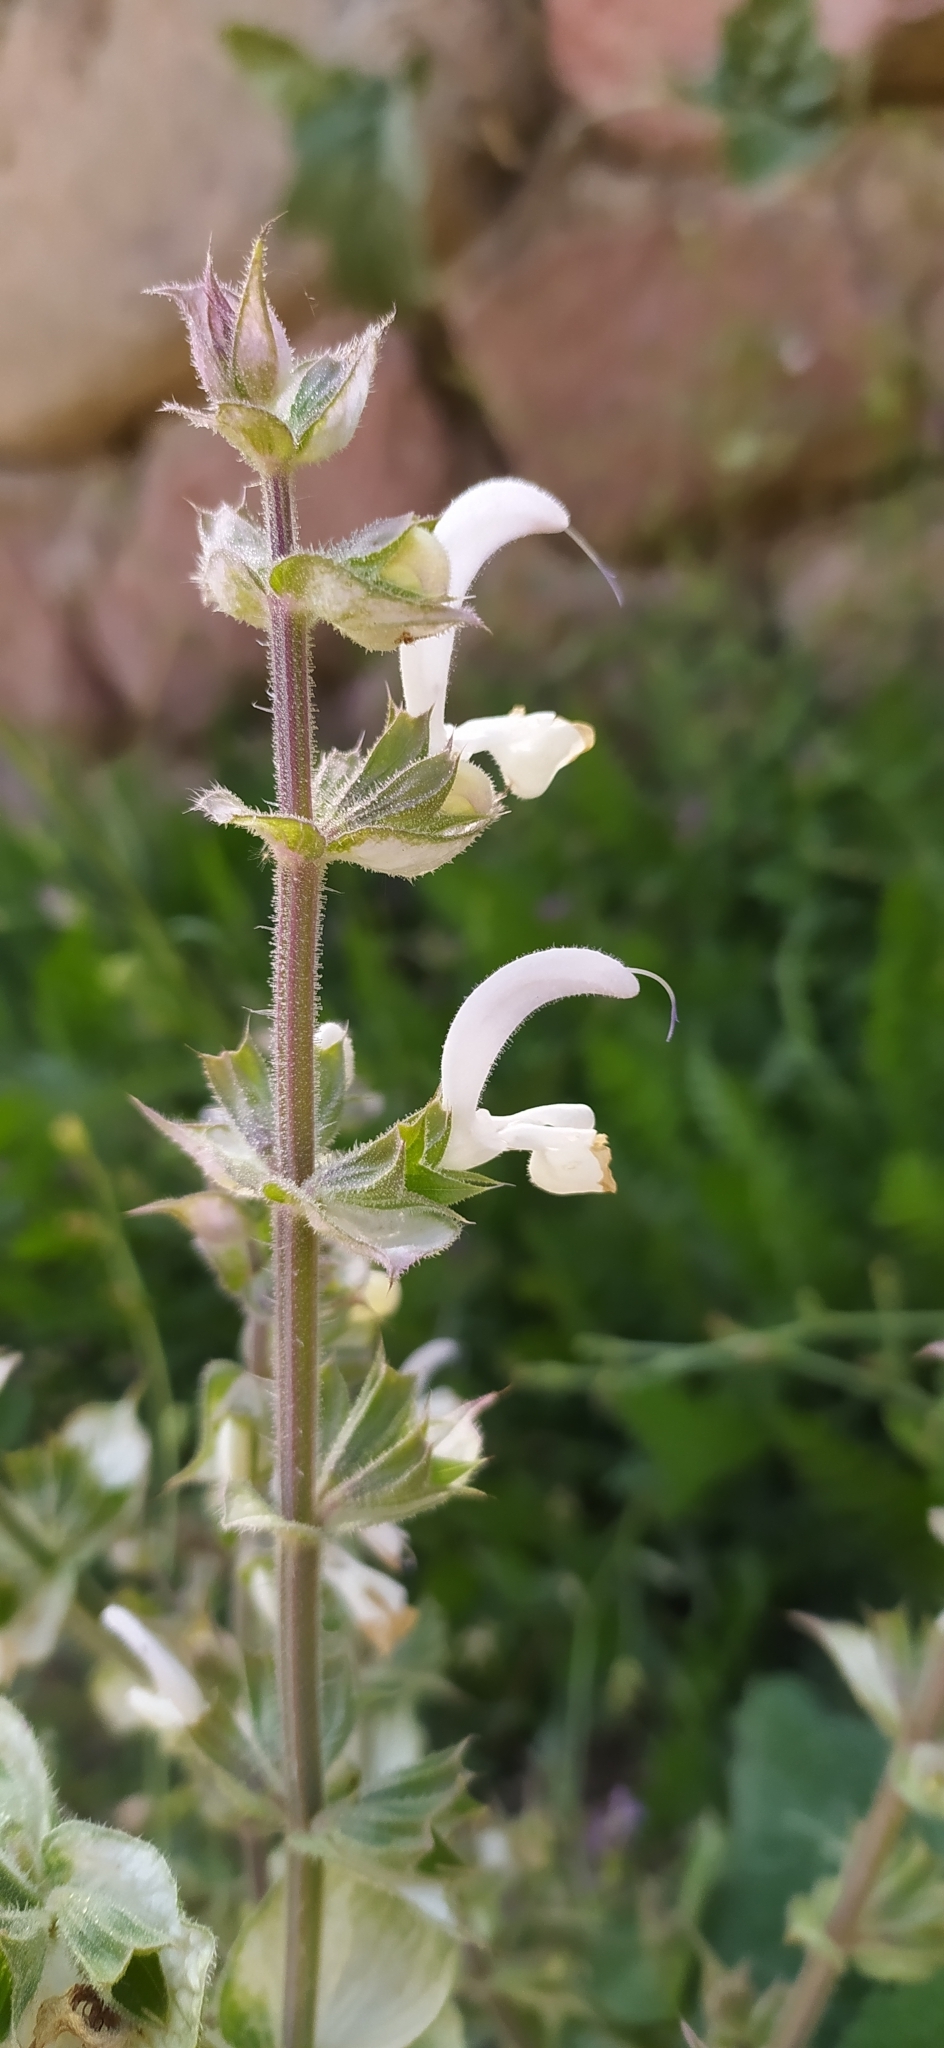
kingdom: Plantae
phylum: Tracheophyta
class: Magnoliopsida
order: Lamiales
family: Lamiaceae
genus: Salvia
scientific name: Salvia sclarea
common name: Clary
